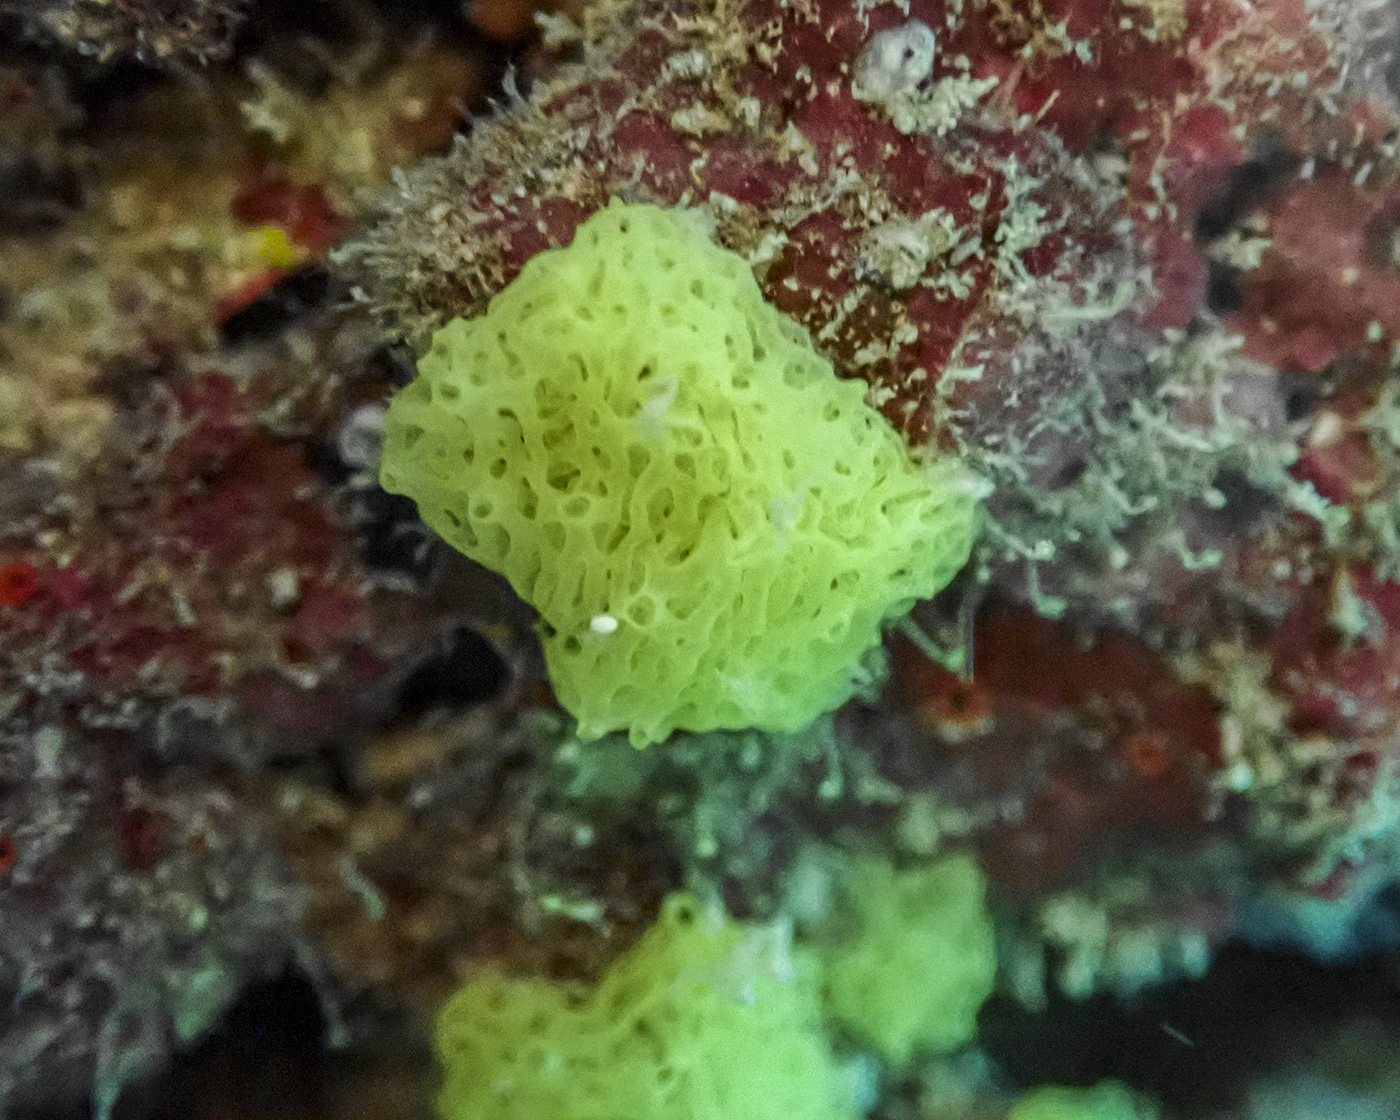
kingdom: Animalia
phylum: Porifera
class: Calcarea
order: Clathrinida
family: Clathrinidae
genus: Clathrina
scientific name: Clathrina clathrus
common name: Yellow clathrina
